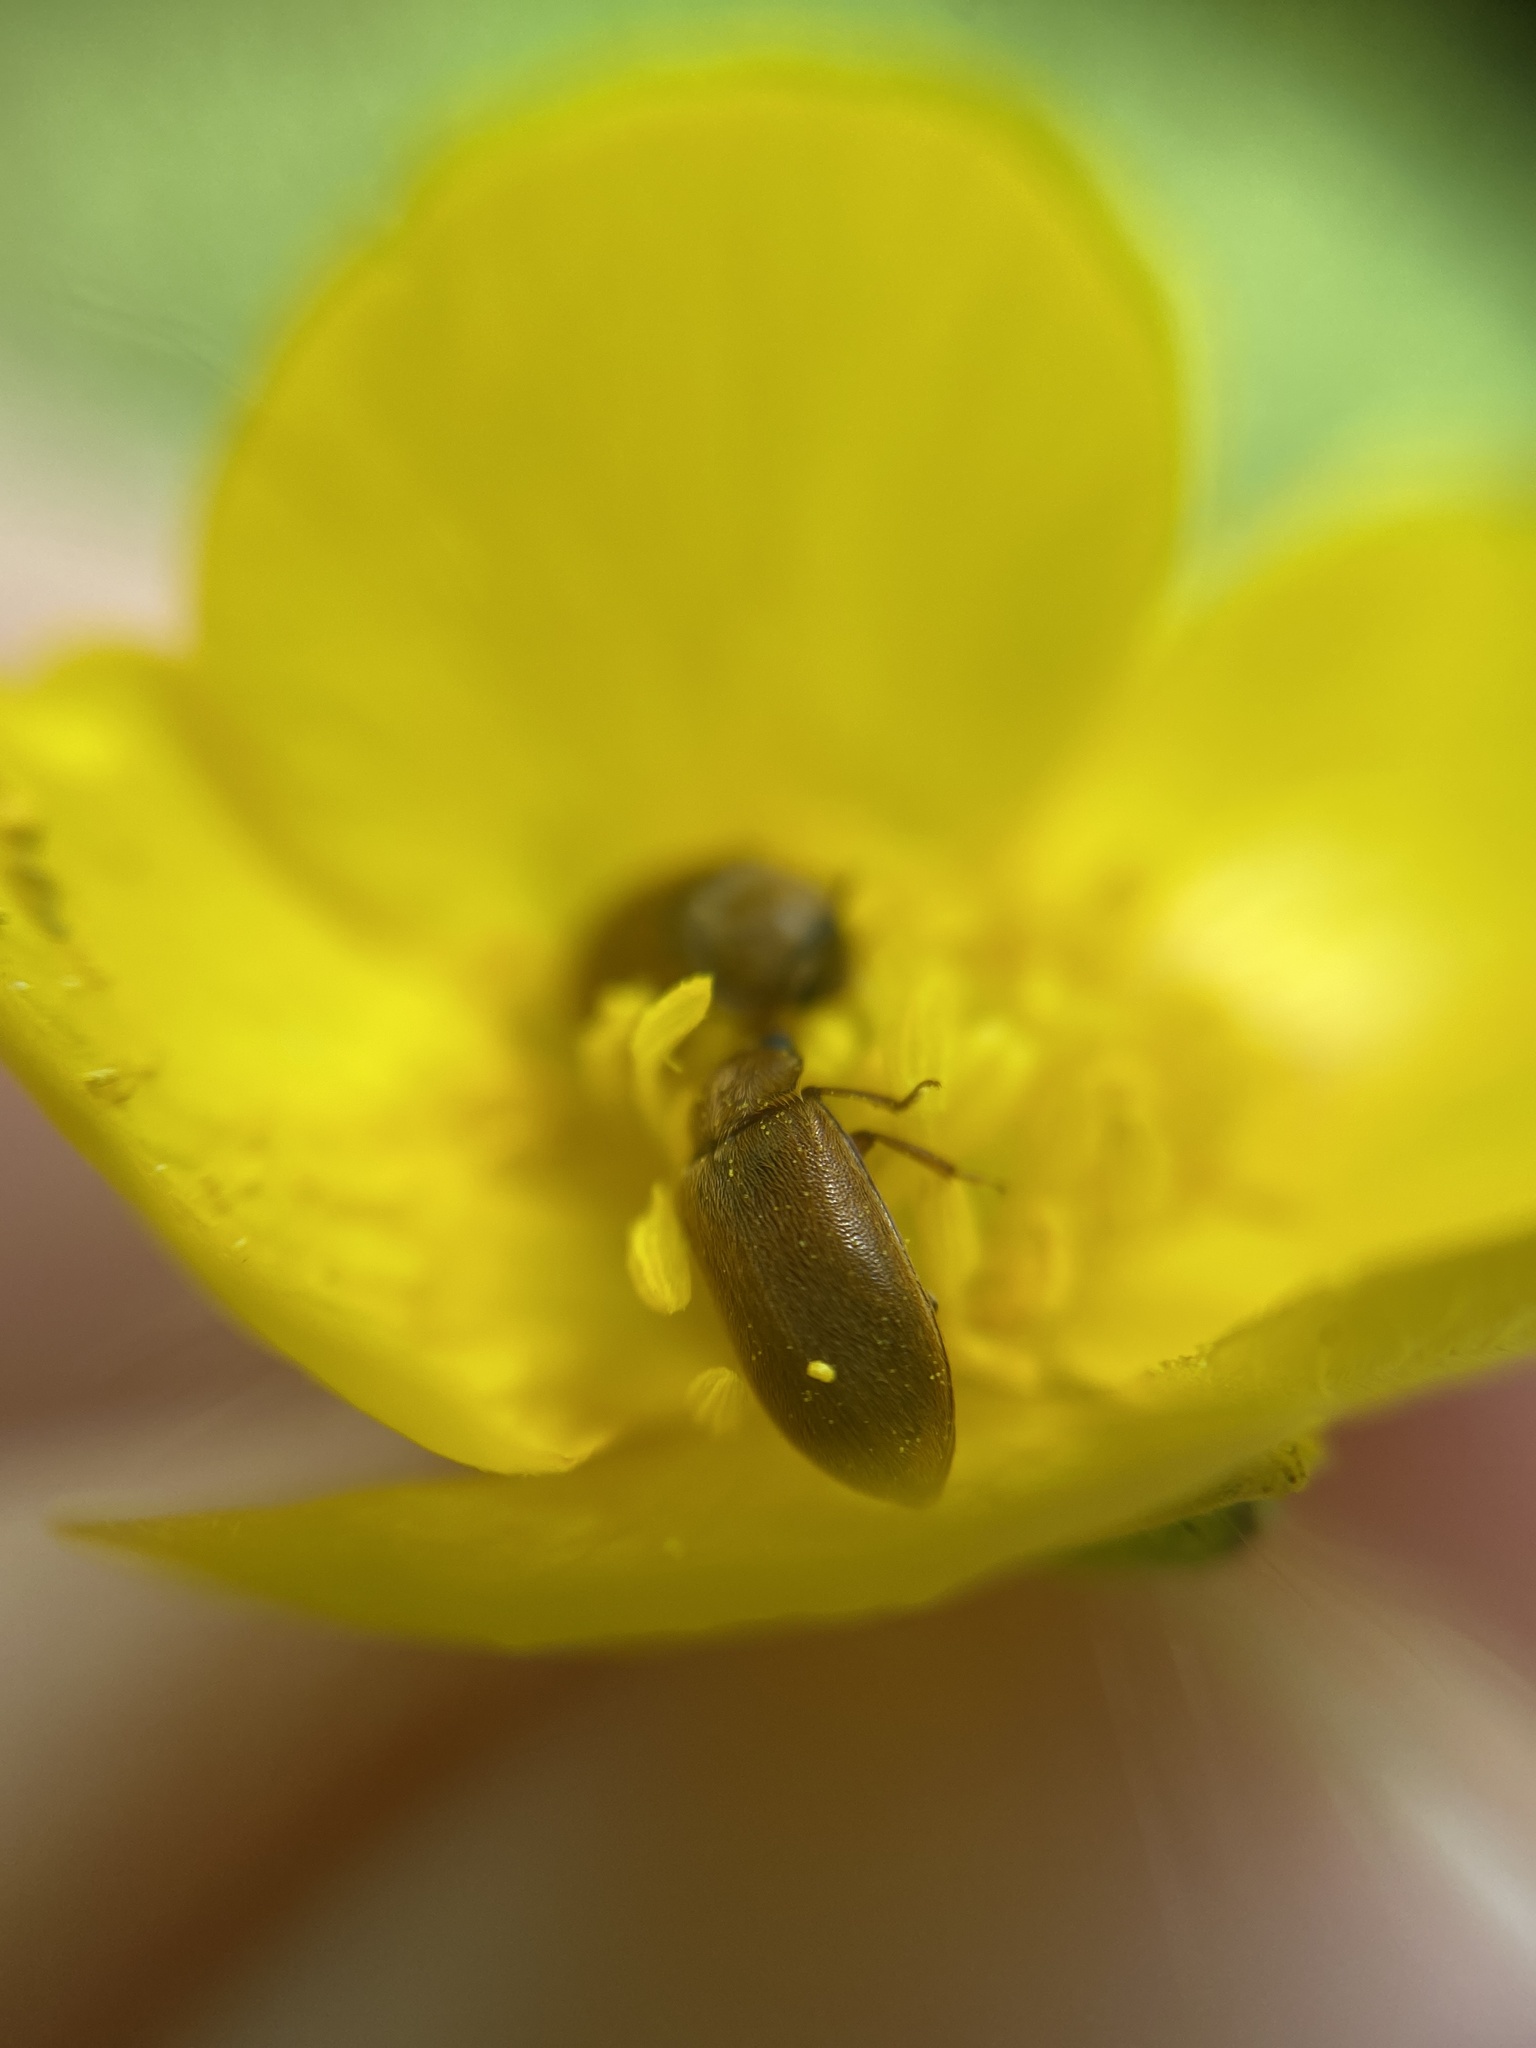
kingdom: Animalia
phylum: Arthropoda
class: Insecta
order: Coleoptera
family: Byturidae
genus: Byturus
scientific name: Byturus tomentosus
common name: Beetle
